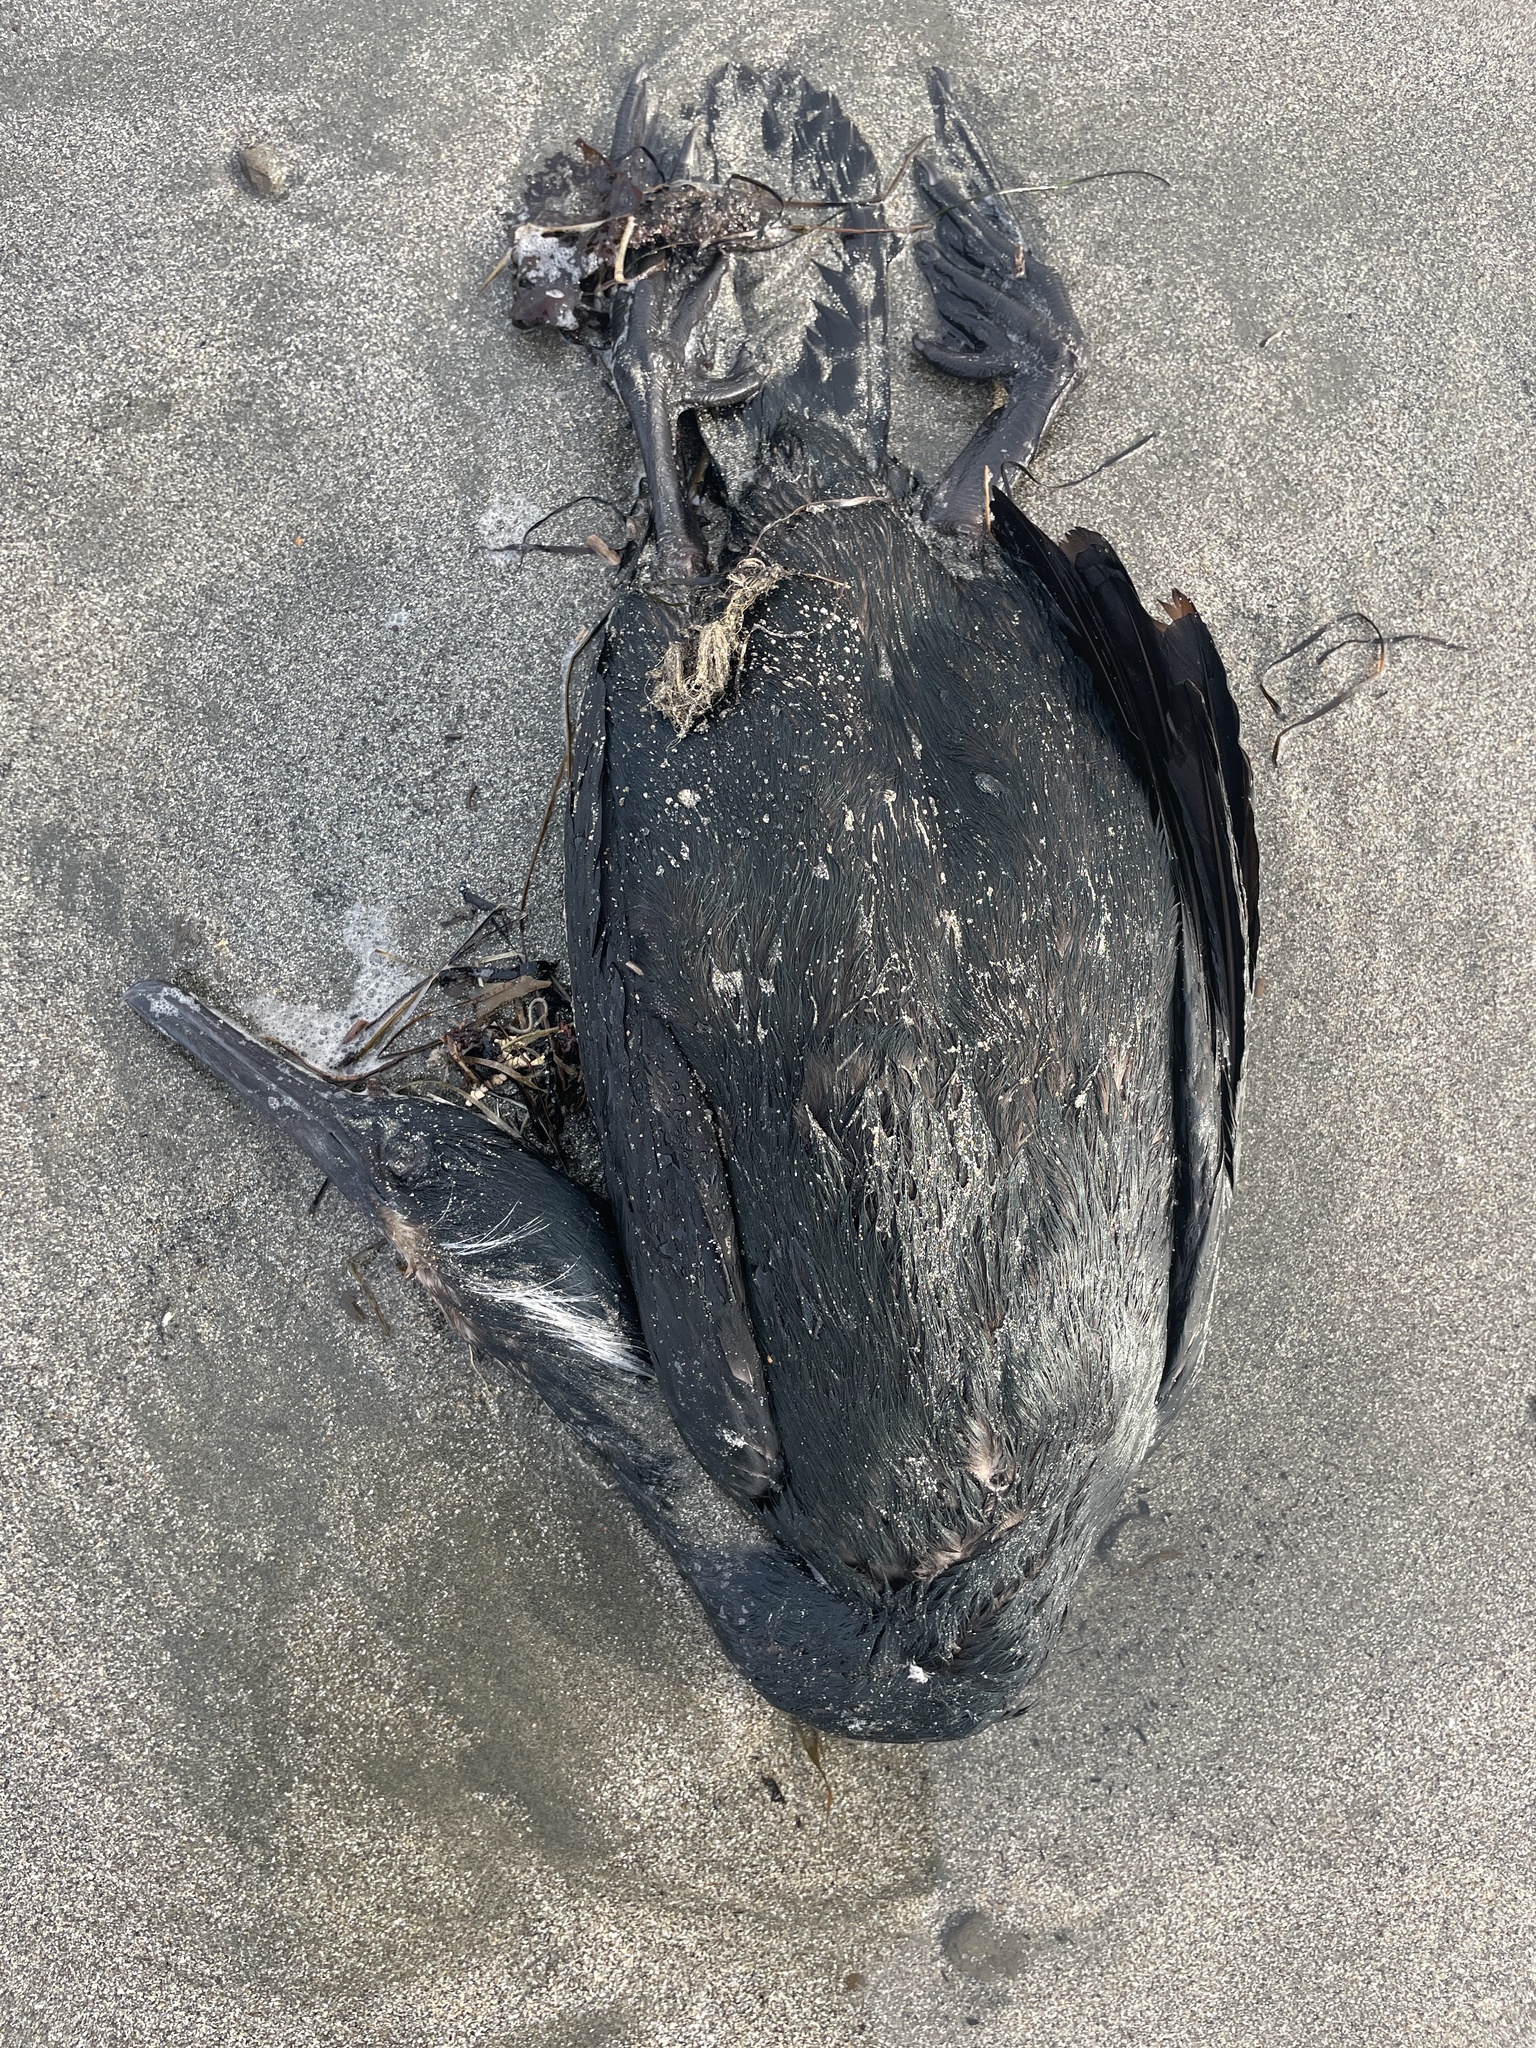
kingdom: Animalia
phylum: Chordata
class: Aves
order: Suliformes
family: Phalacrocoracidae
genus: Urile
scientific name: Urile penicillatus
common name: Brandt's cormorant
